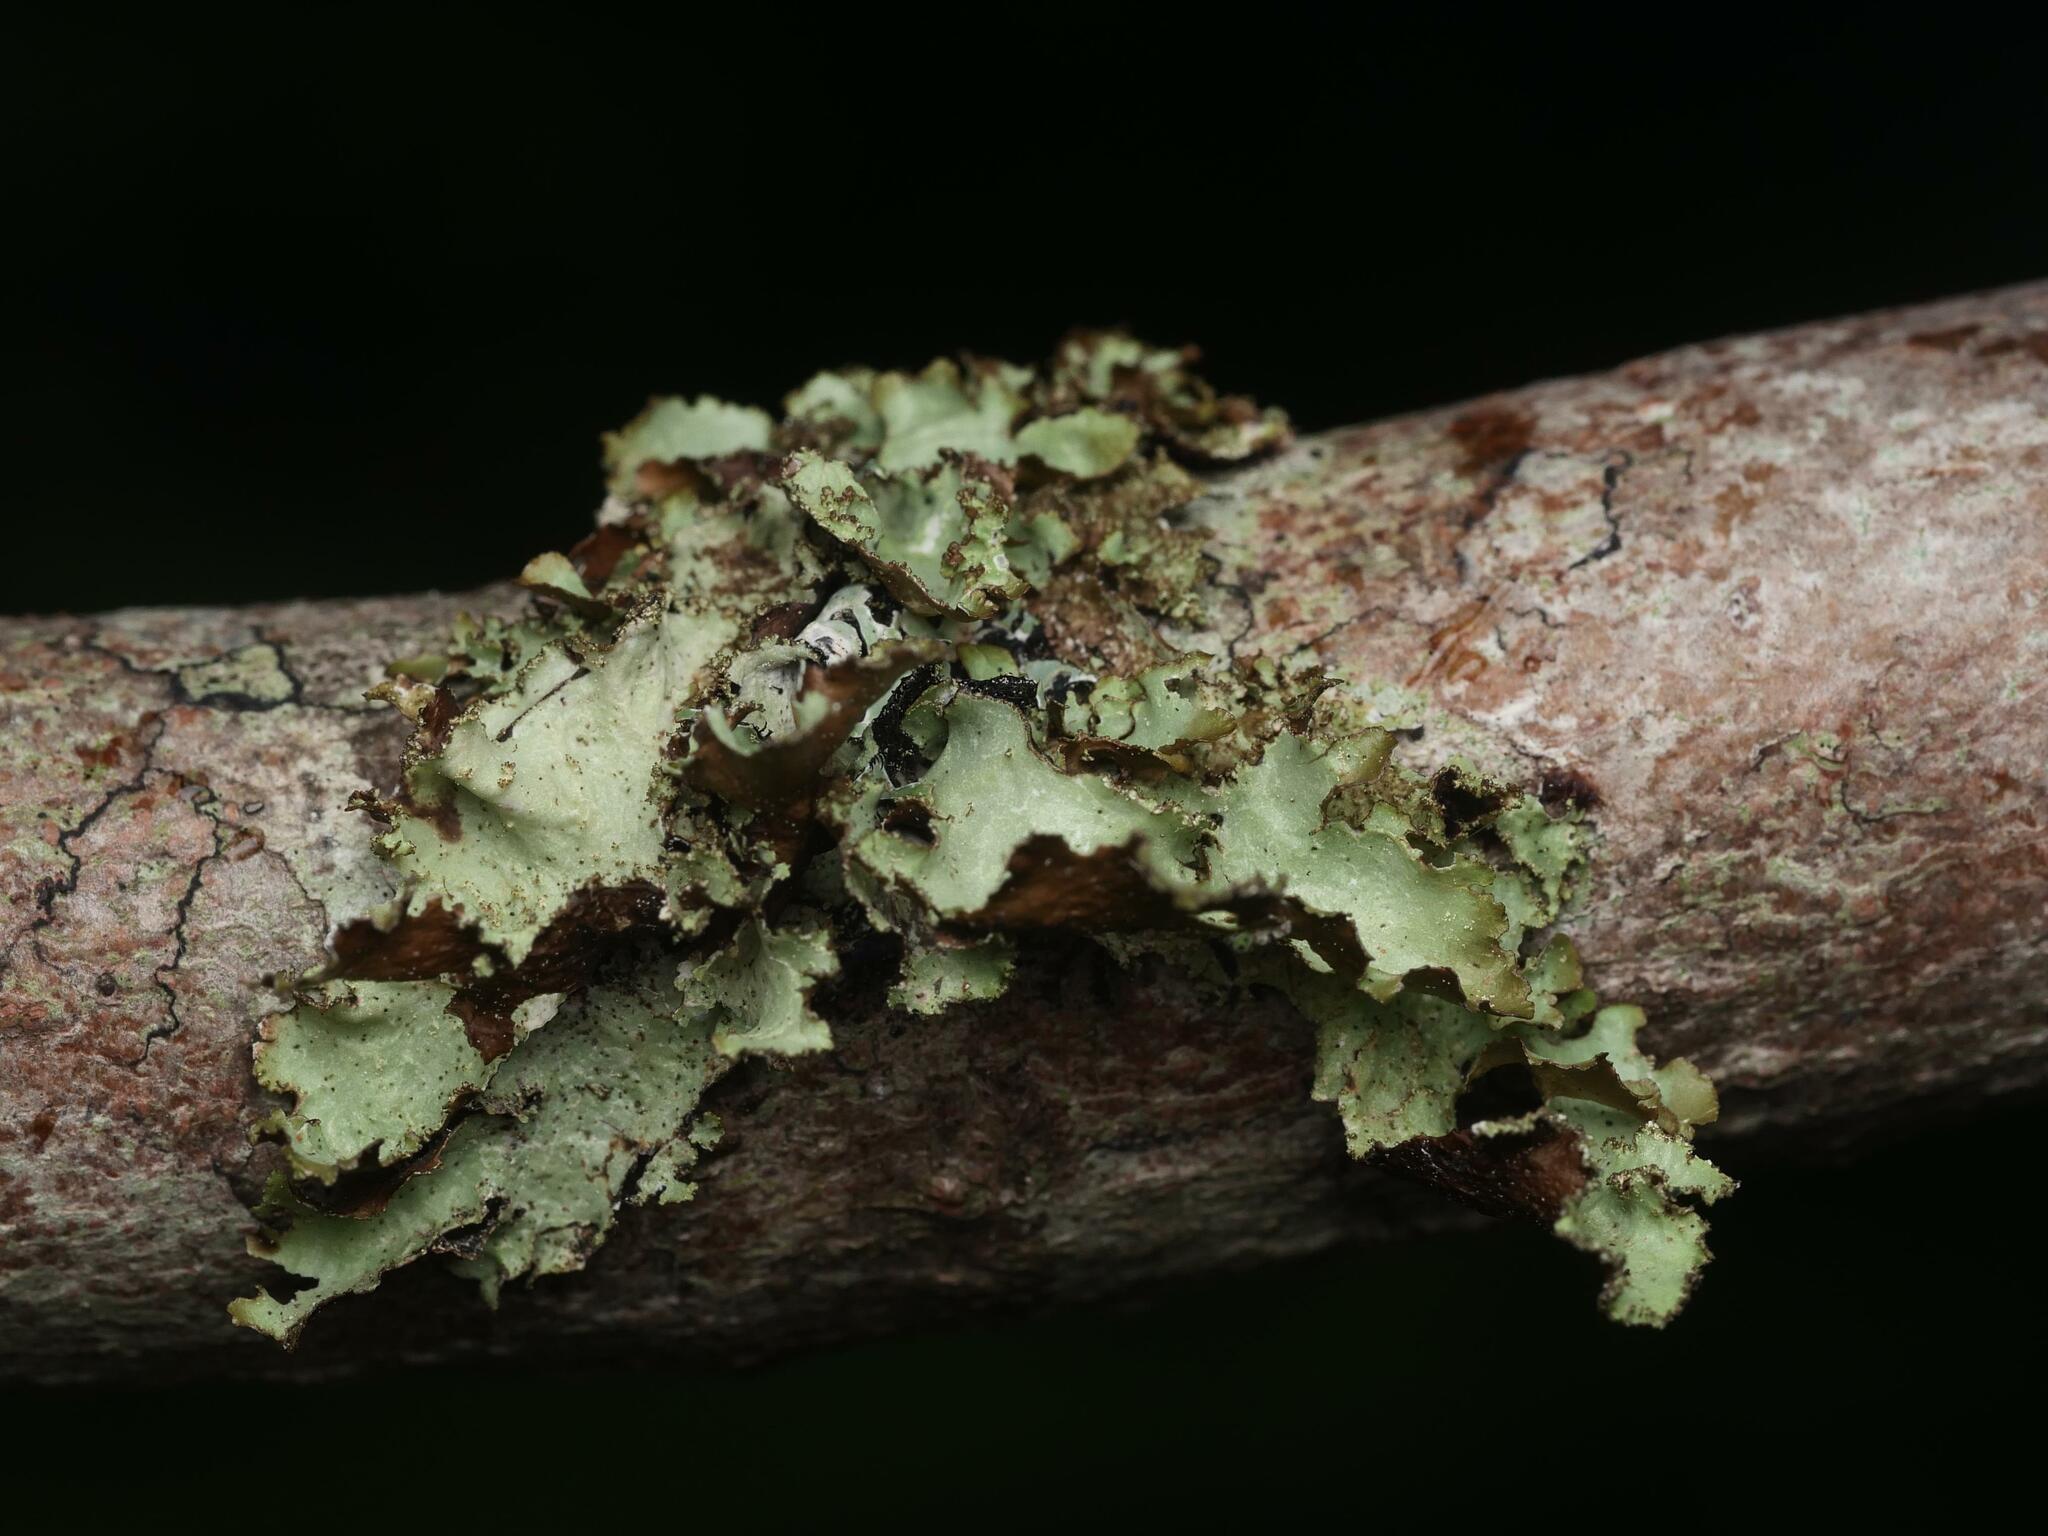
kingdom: Fungi
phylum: Ascomycota
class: Lecanoromycetes
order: Lecanorales
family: Parmeliaceae
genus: Platismatia
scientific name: Platismatia glauca
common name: Varied rag lichen
